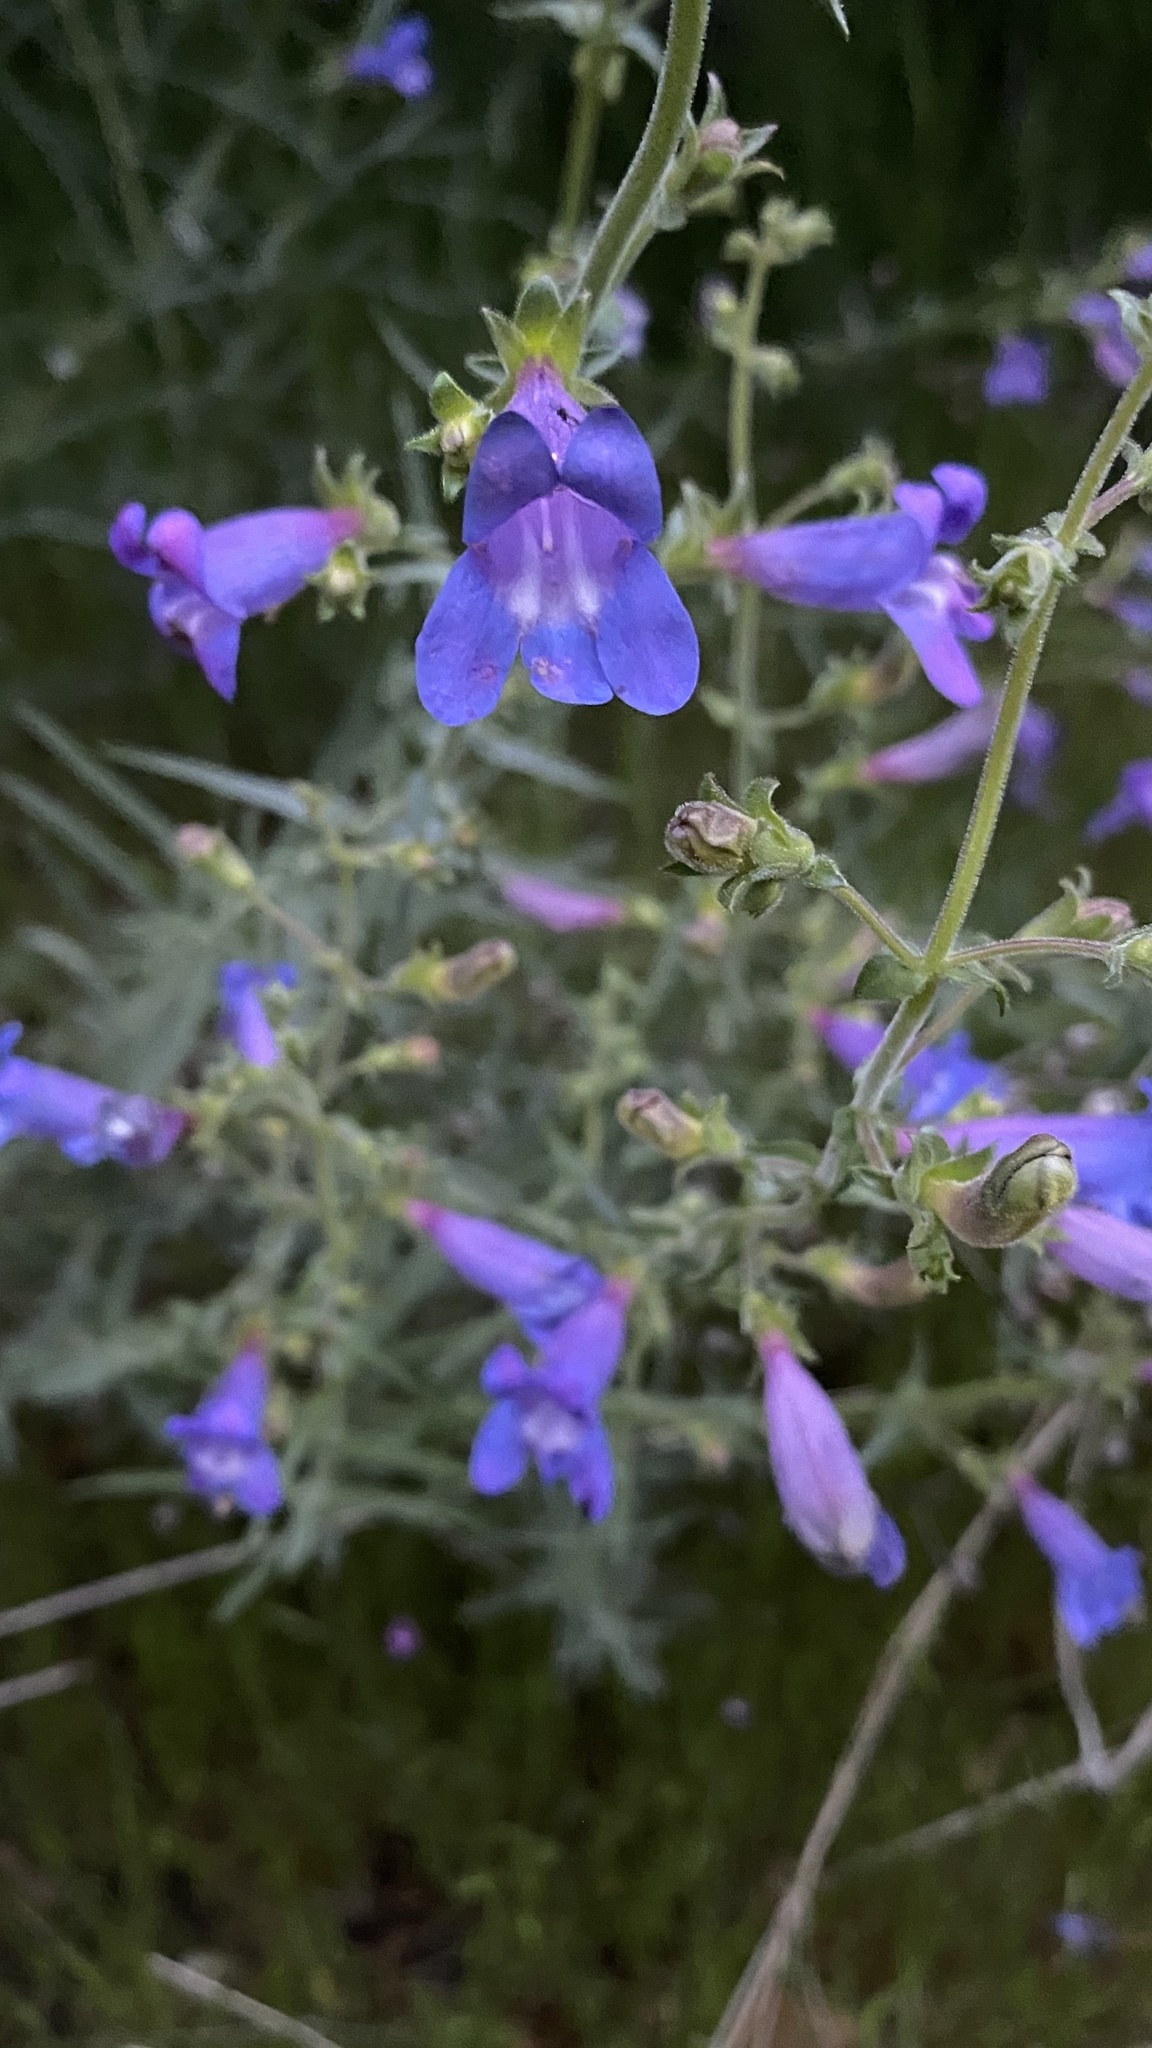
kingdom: Plantae
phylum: Tracheophyta
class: Magnoliopsida
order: Lamiales
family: Plantaginaceae
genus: Penstemon
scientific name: Penstemon laetus
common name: Gay penstemon
